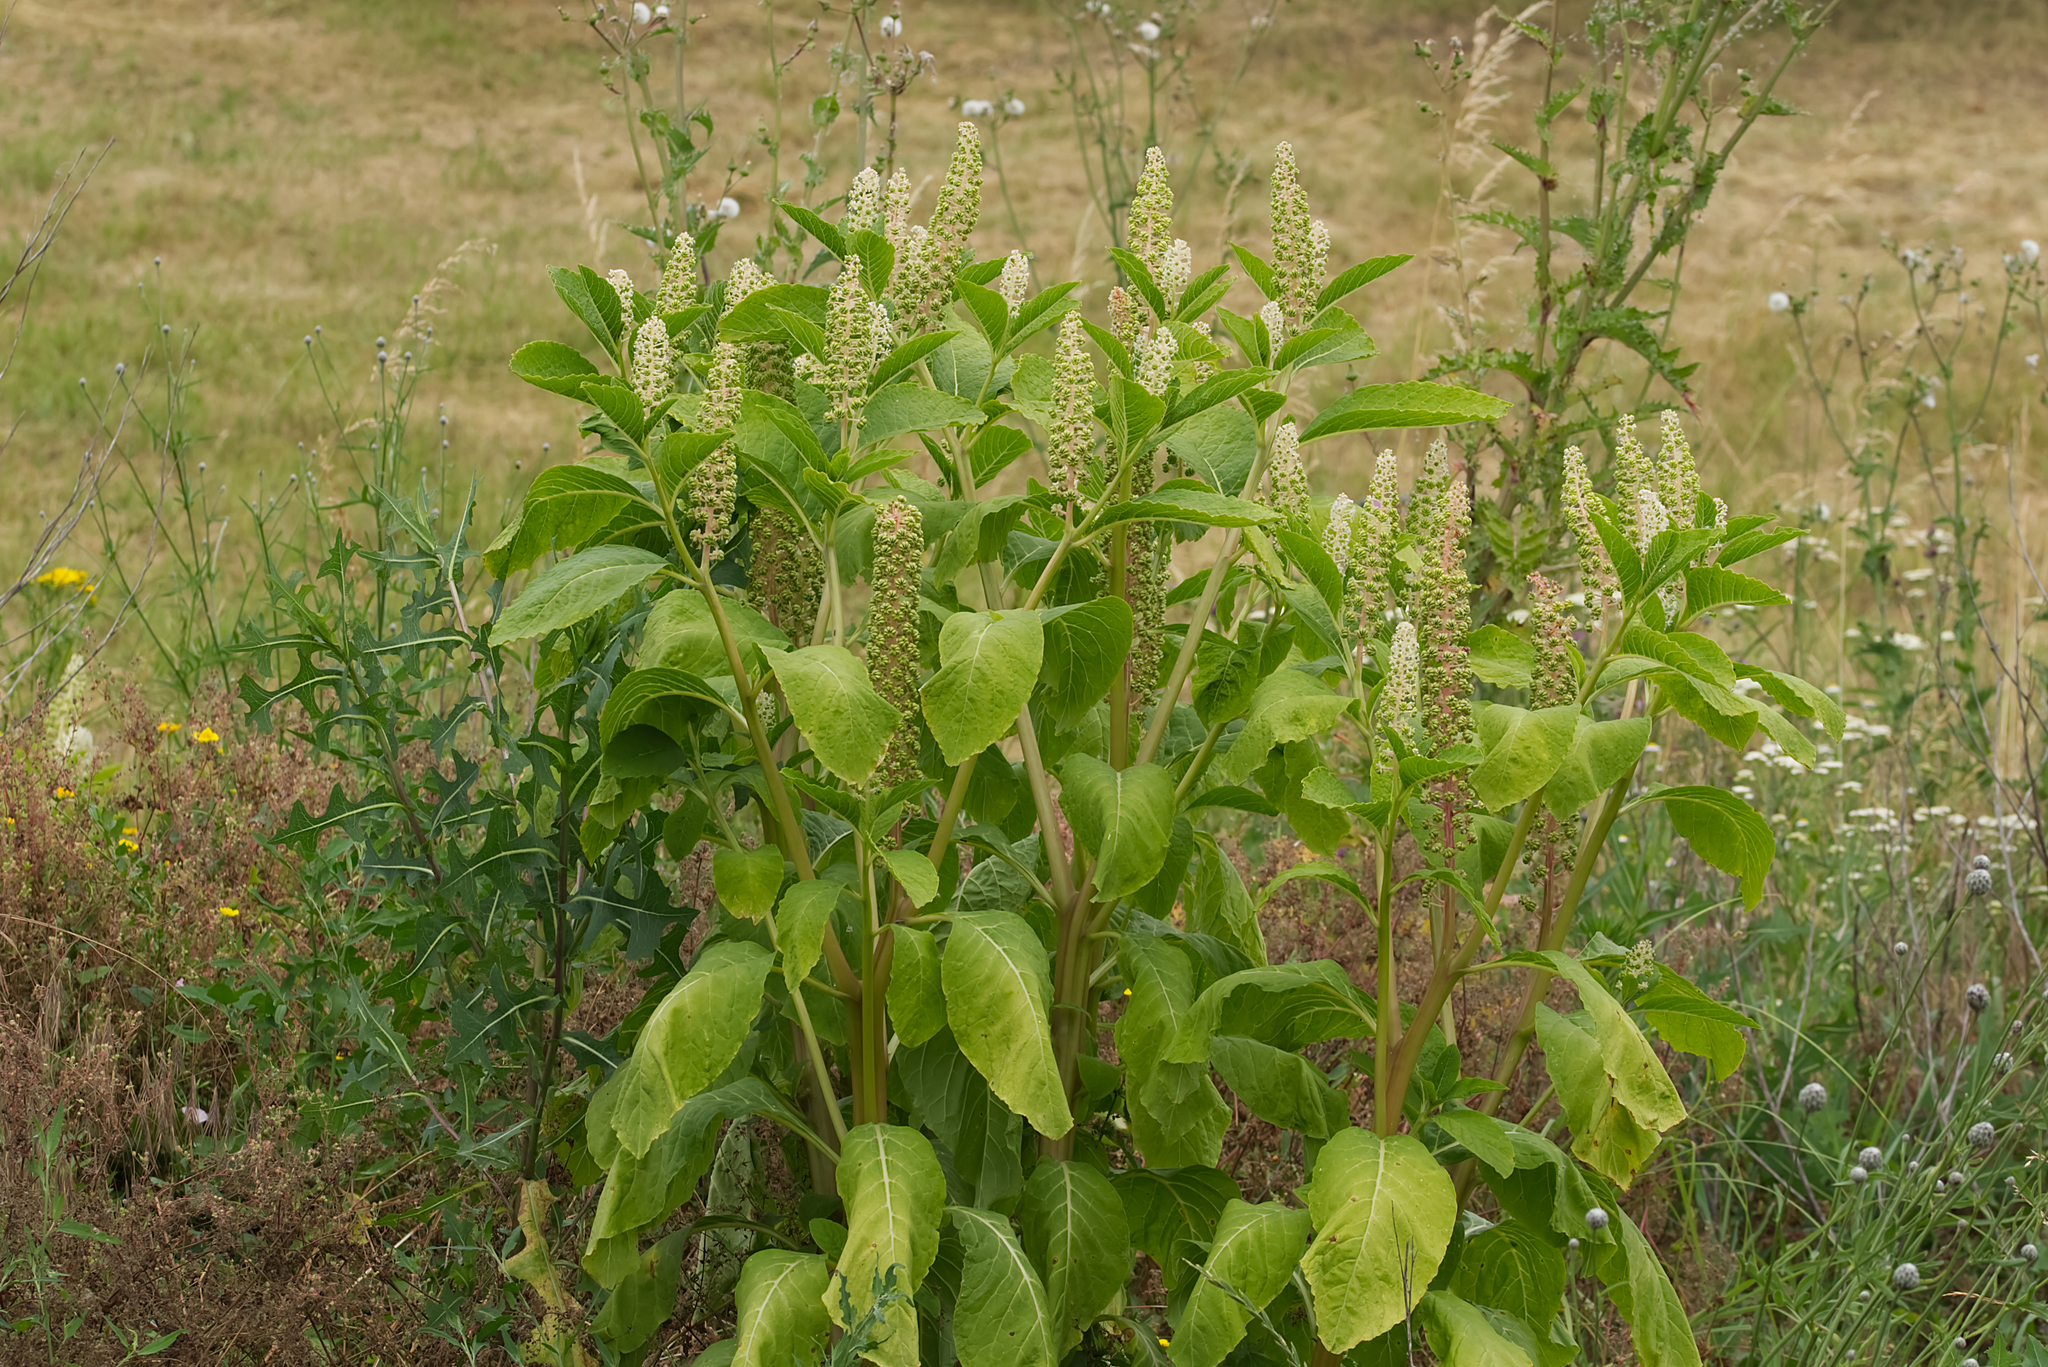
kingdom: Plantae
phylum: Tracheophyta
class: Magnoliopsida
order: Caryophyllales
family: Phytolaccaceae
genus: Phytolacca
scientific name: Phytolacca acinosa
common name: Indian pokeweed
